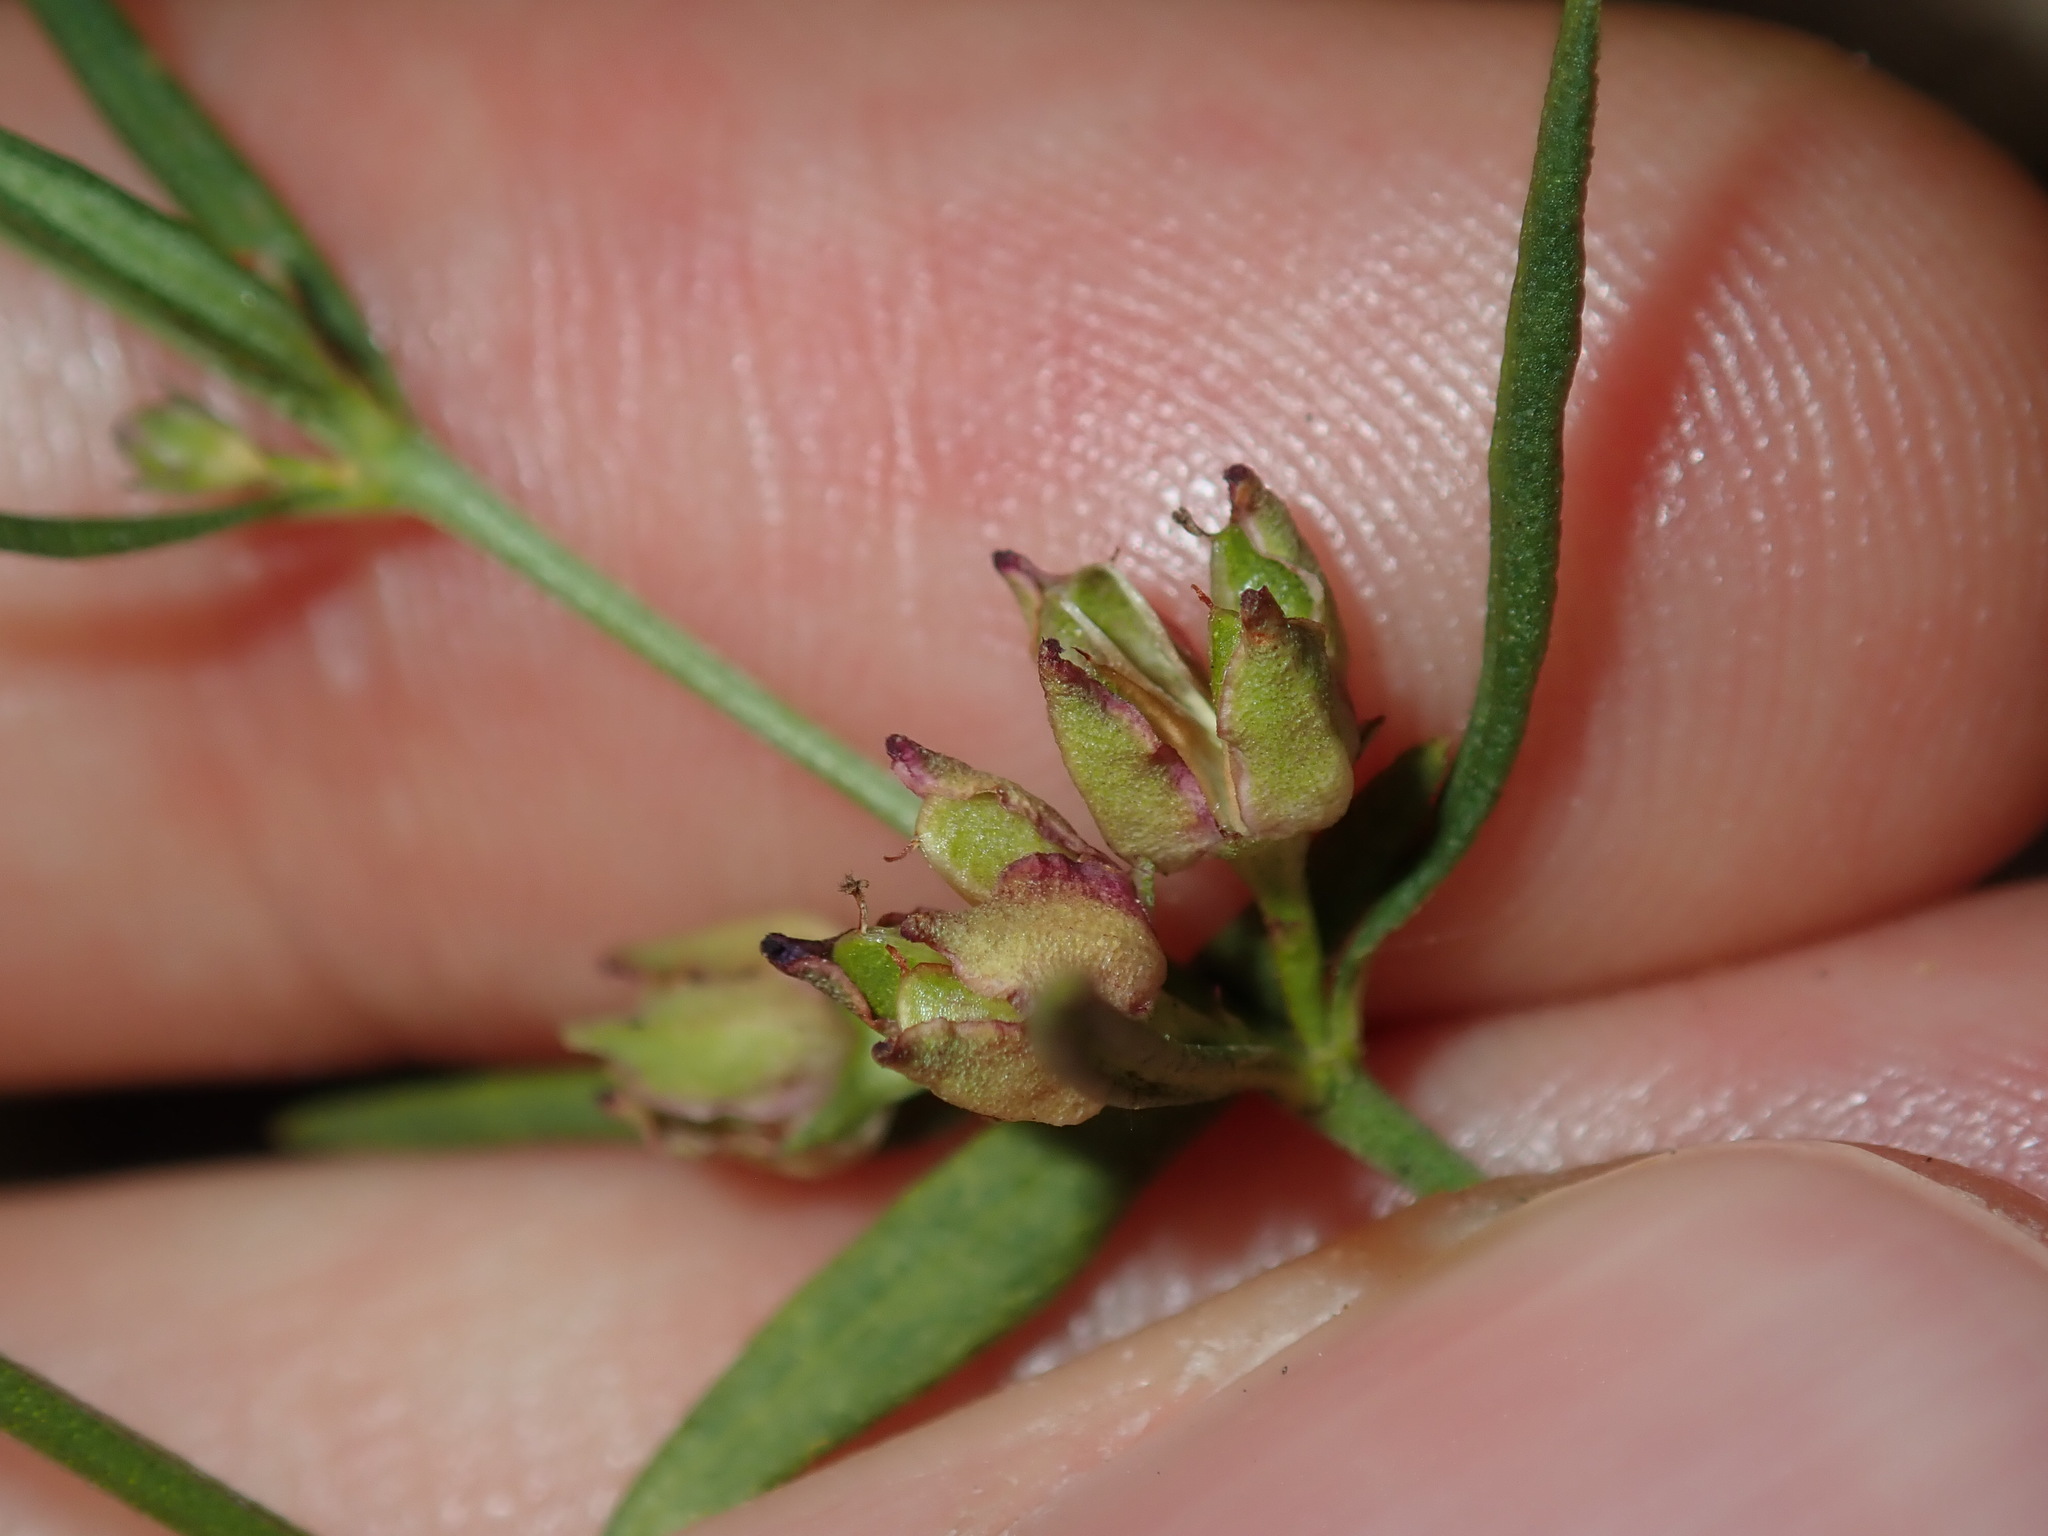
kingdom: Plantae
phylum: Tracheophyta
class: Magnoliopsida
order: Sapindales
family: Rutaceae
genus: Cyanothamnus
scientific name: Cyanothamnus polygalifolius
